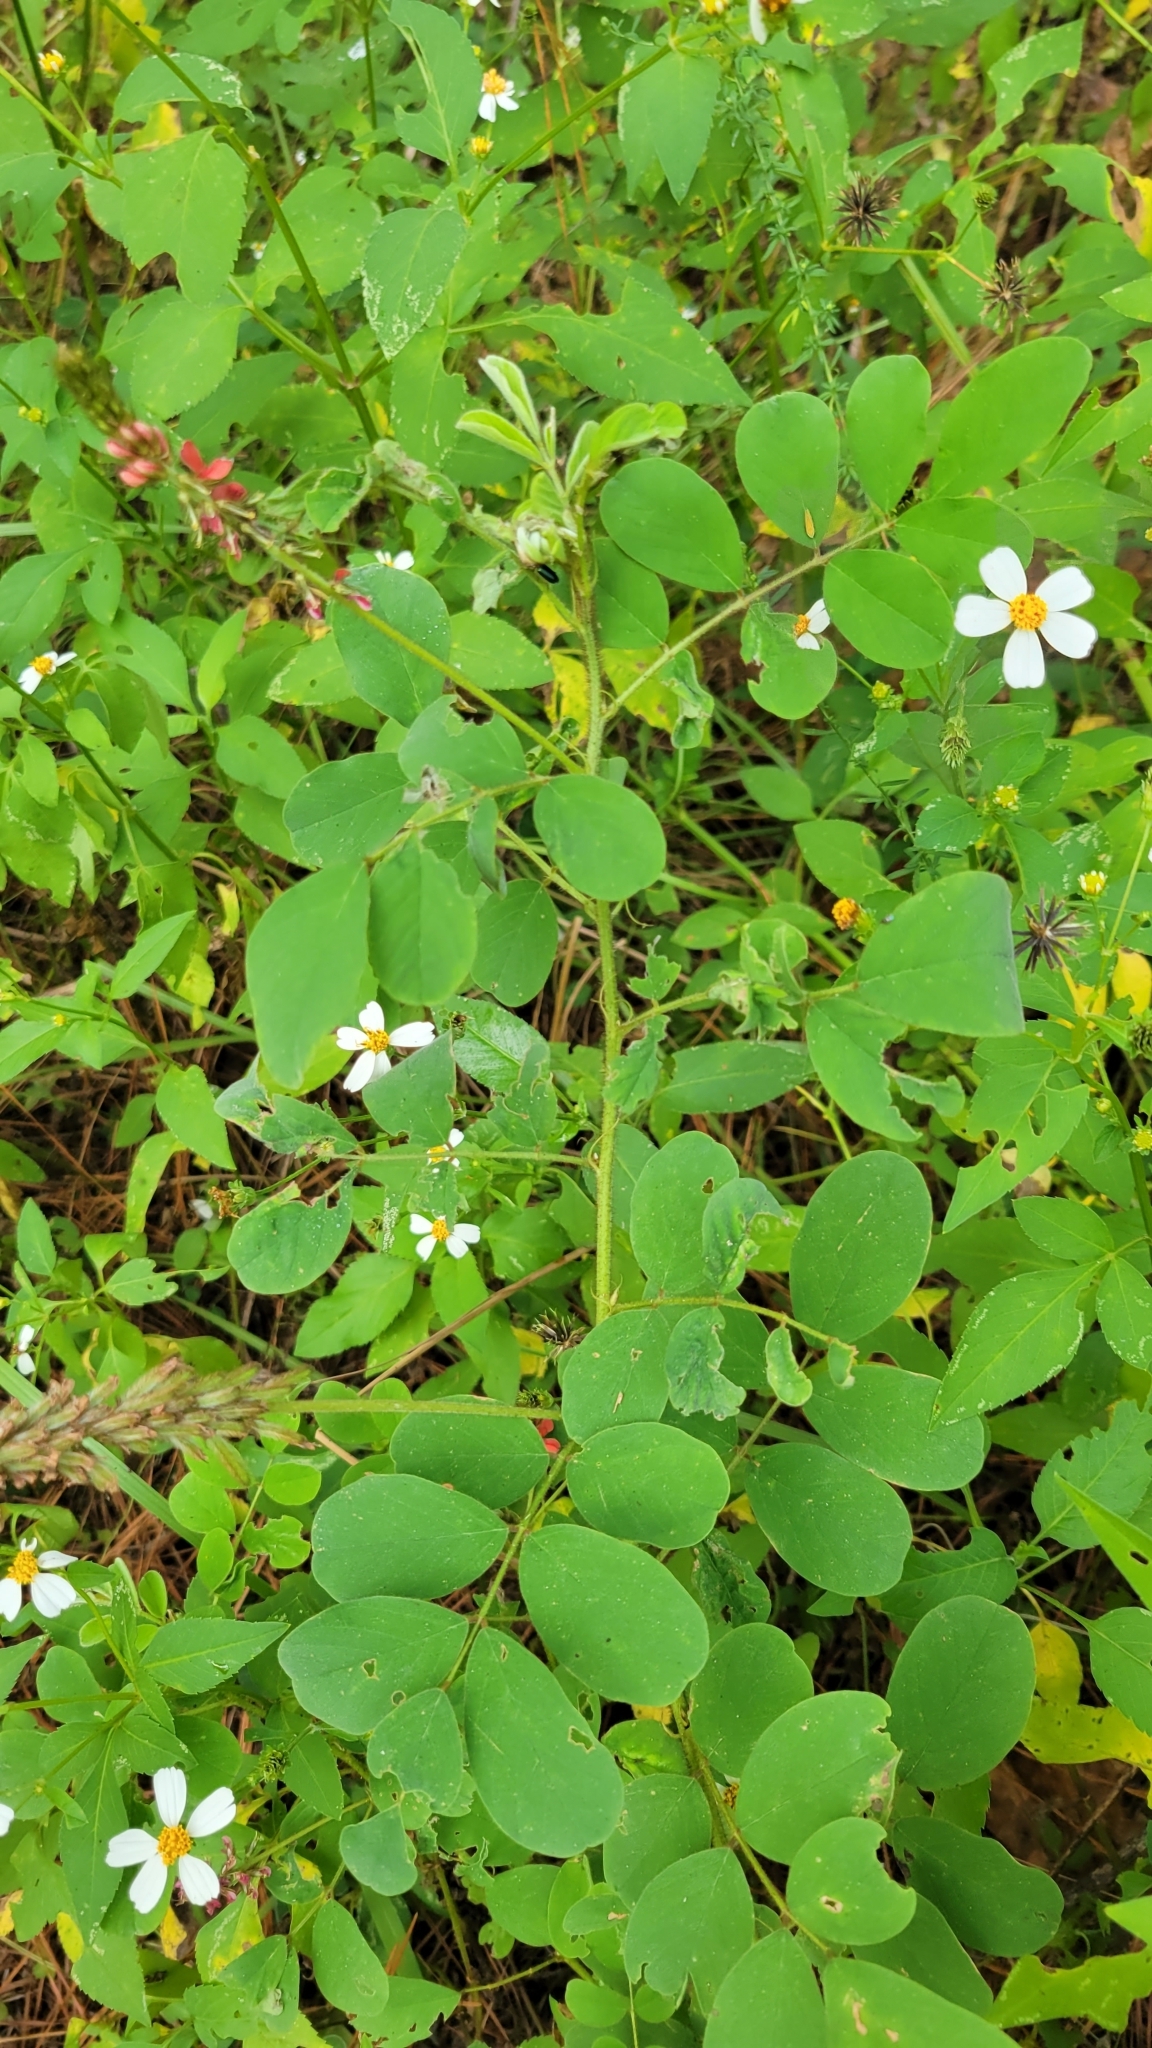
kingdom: Plantae
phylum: Tracheophyta
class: Magnoliopsida
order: Fabales
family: Fabaceae
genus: Indigofera
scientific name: Indigofera hirsuta
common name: Hairy indigo
